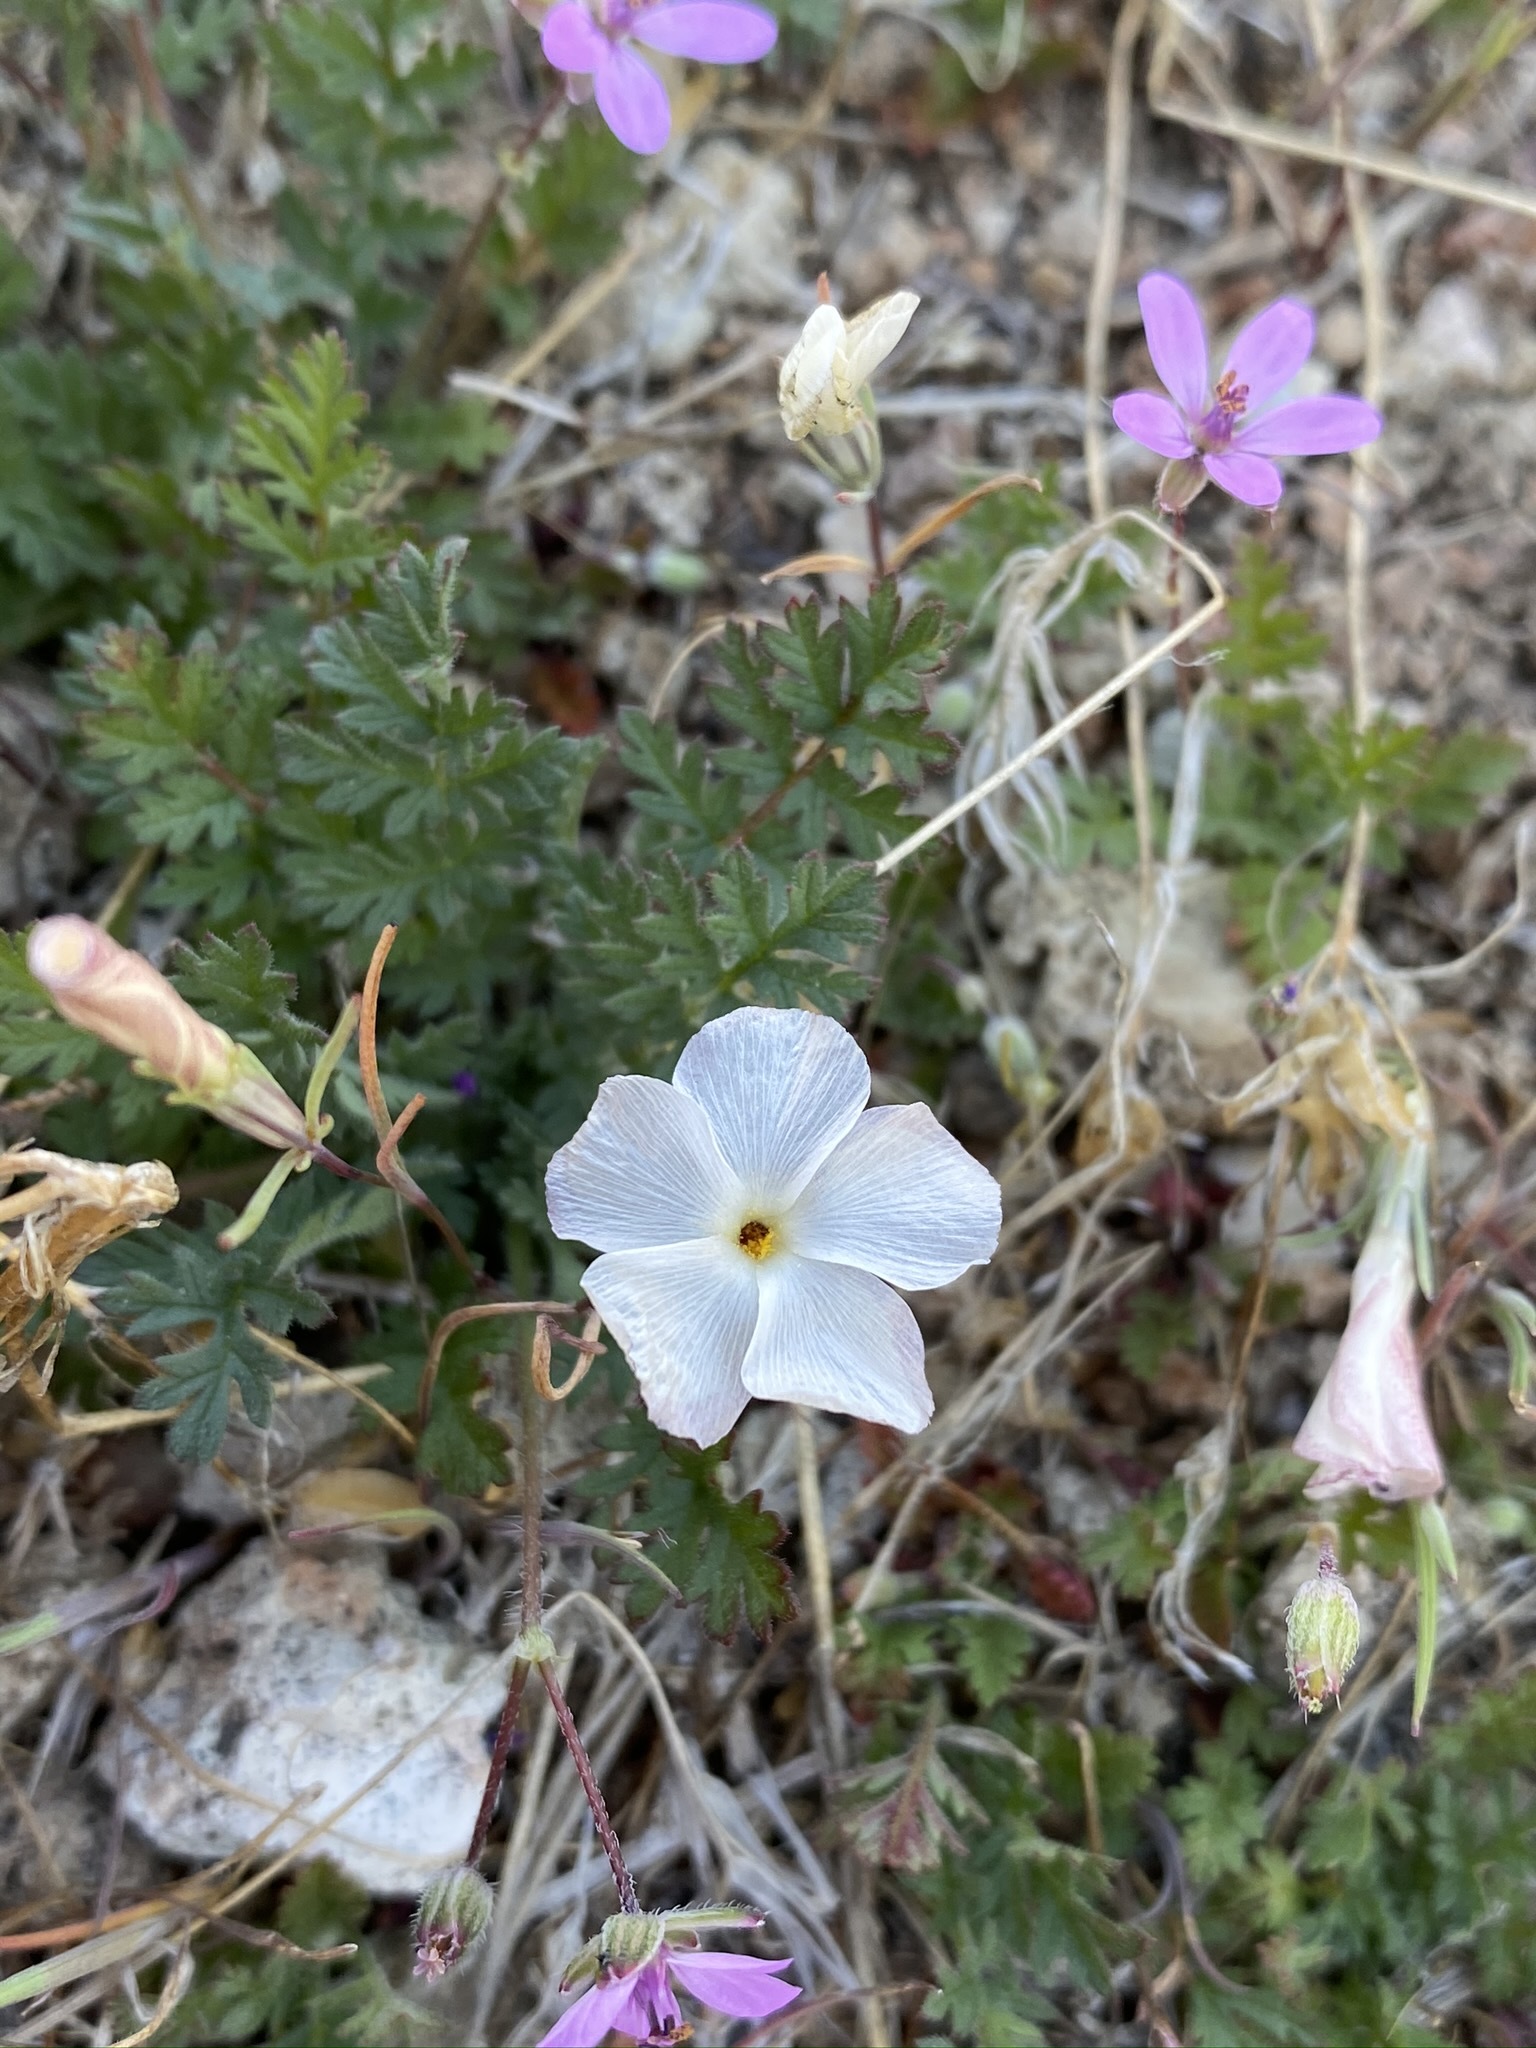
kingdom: Plantae
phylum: Tracheophyta
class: Magnoliopsida
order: Ericales
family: Polemoniaceae
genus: Linanthus
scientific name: Linanthus dichotomus
